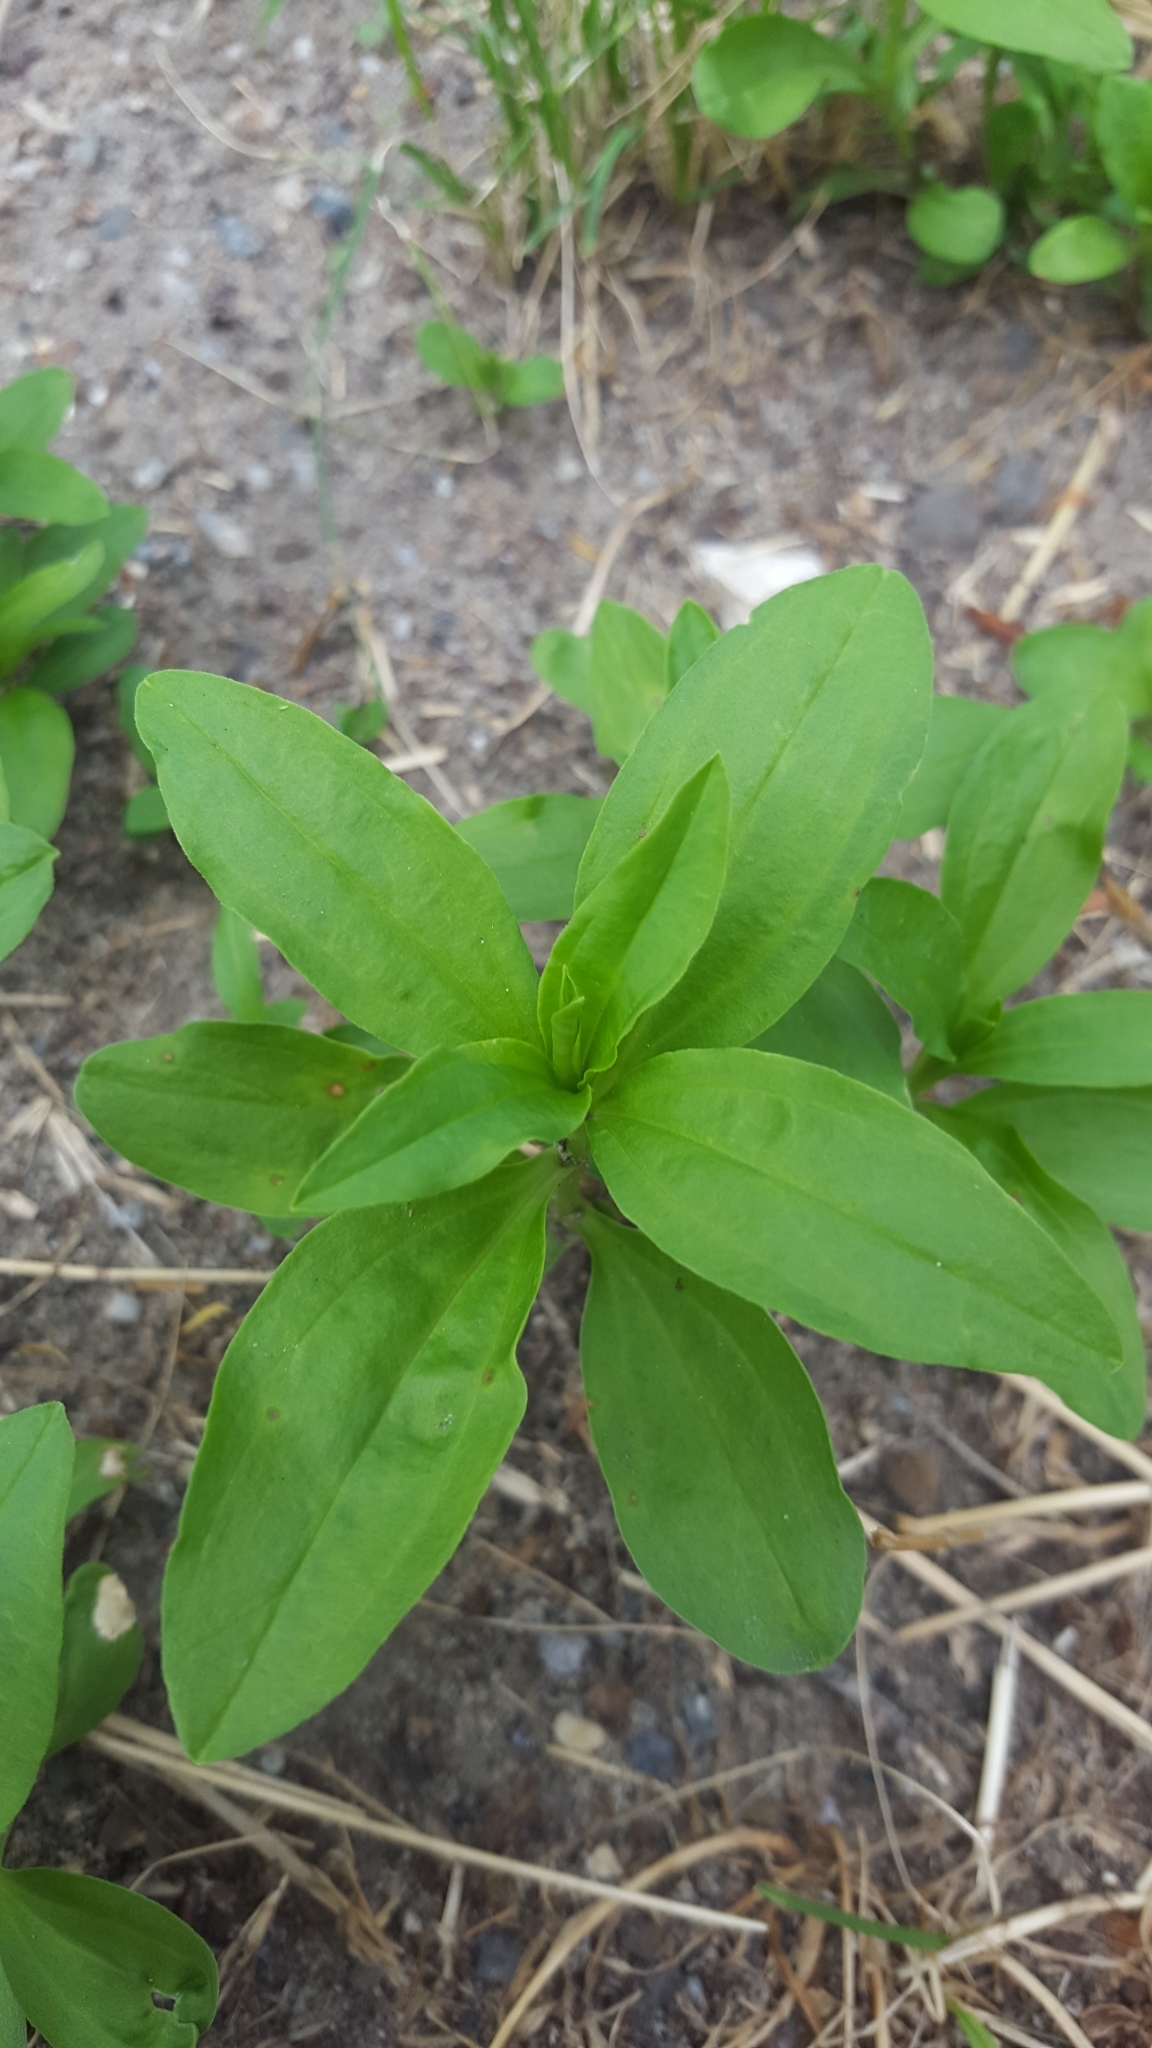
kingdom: Plantae
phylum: Tracheophyta
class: Magnoliopsida
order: Caryophyllales
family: Caryophyllaceae
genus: Saponaria
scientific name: Saponaria officinalis
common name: Soapwort
